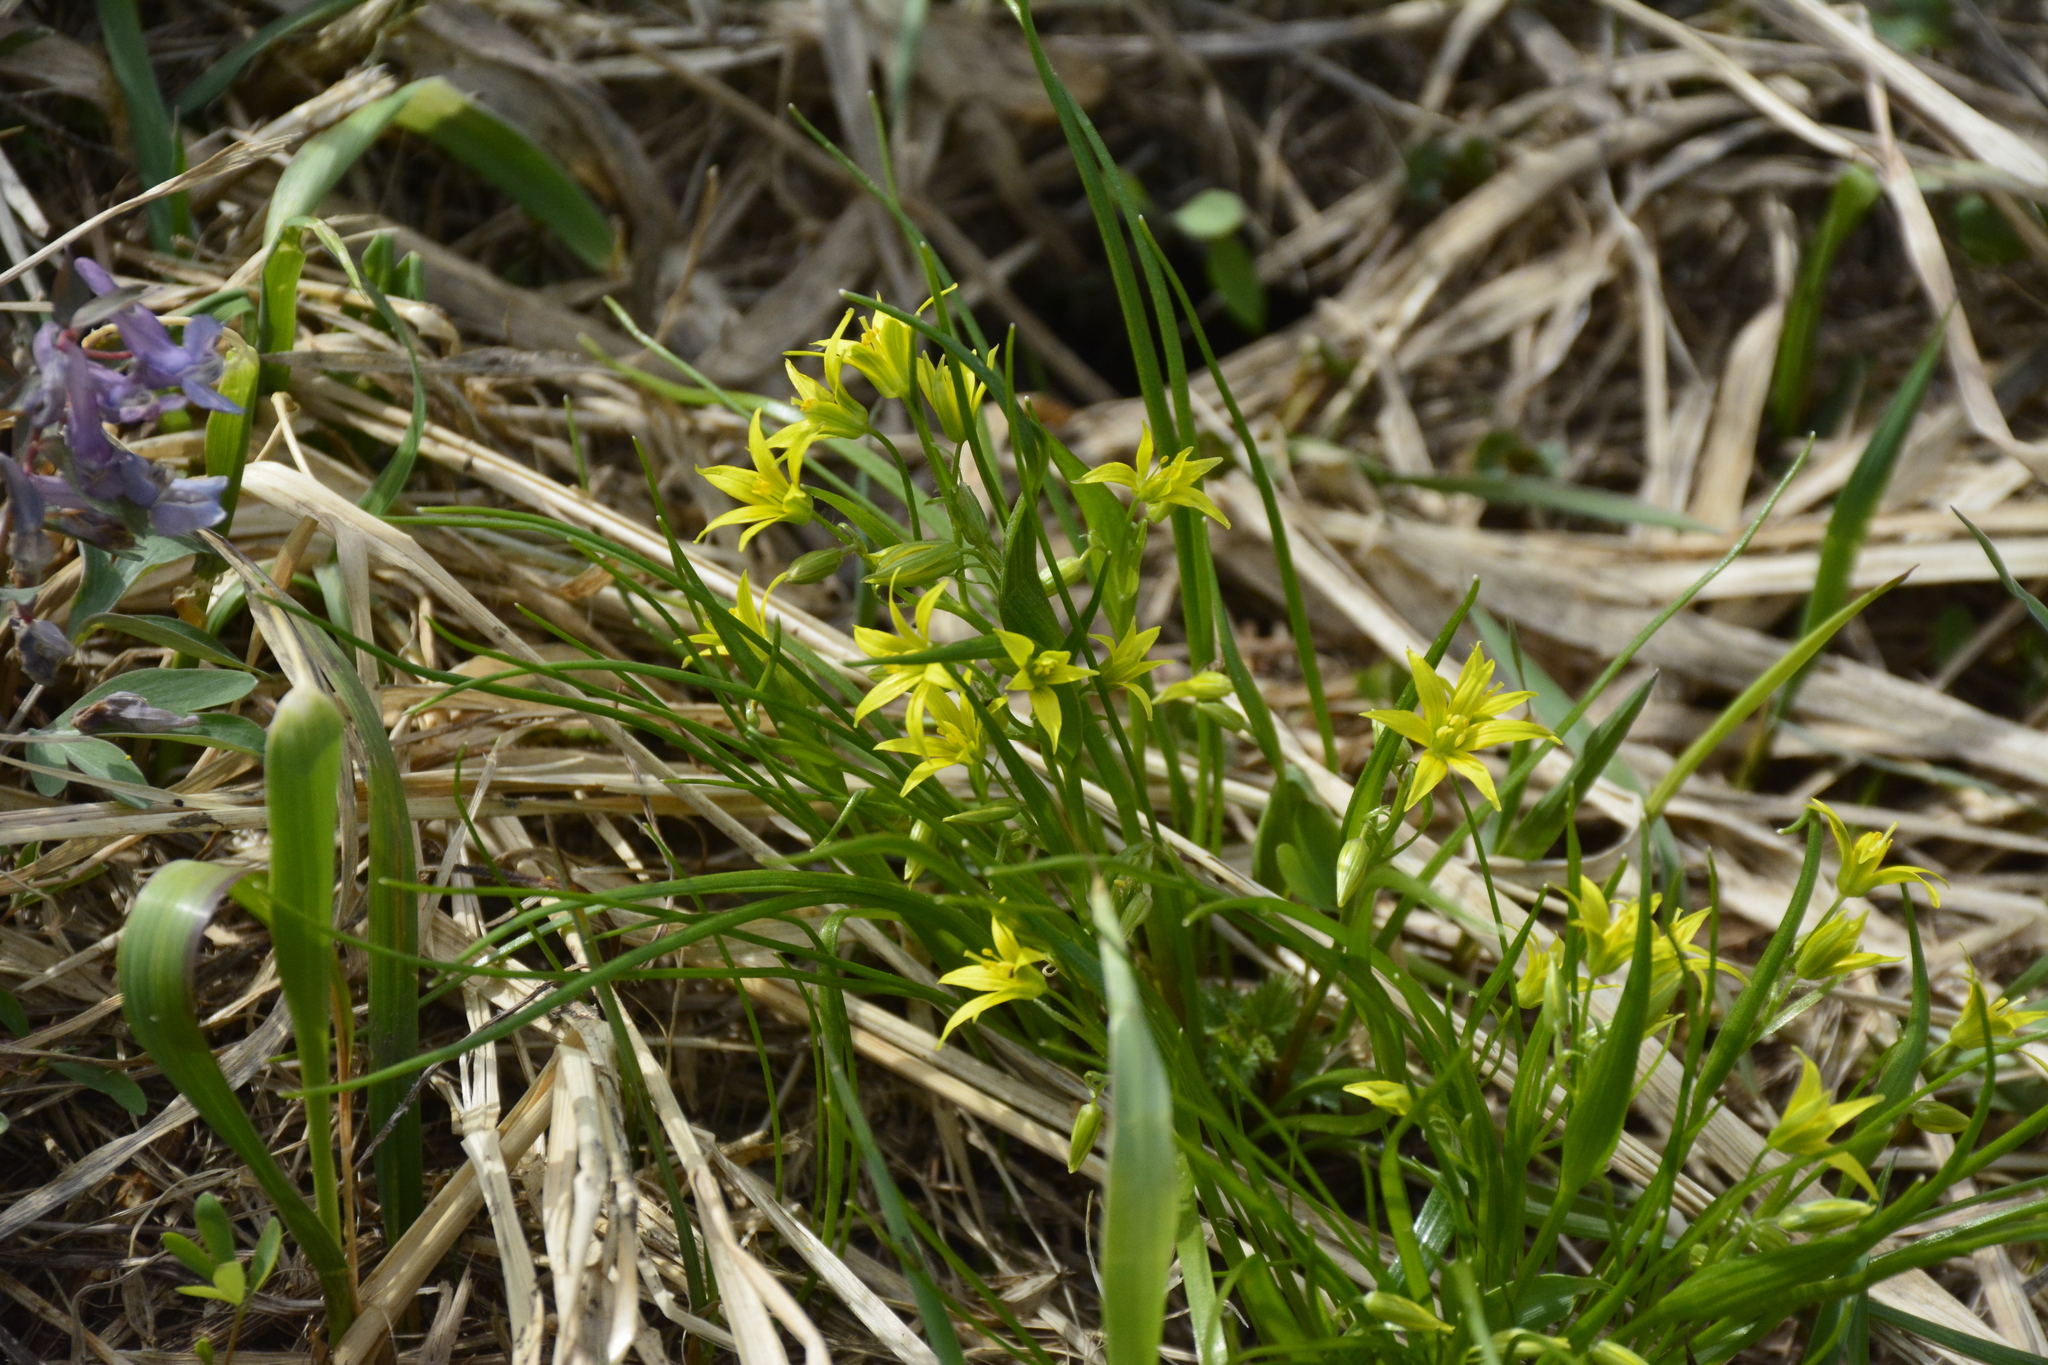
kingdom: Plantae
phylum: Tracheophyta
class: Liliopsida
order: Liliales
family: Liliaceae
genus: Gagea
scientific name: Gagea minima
